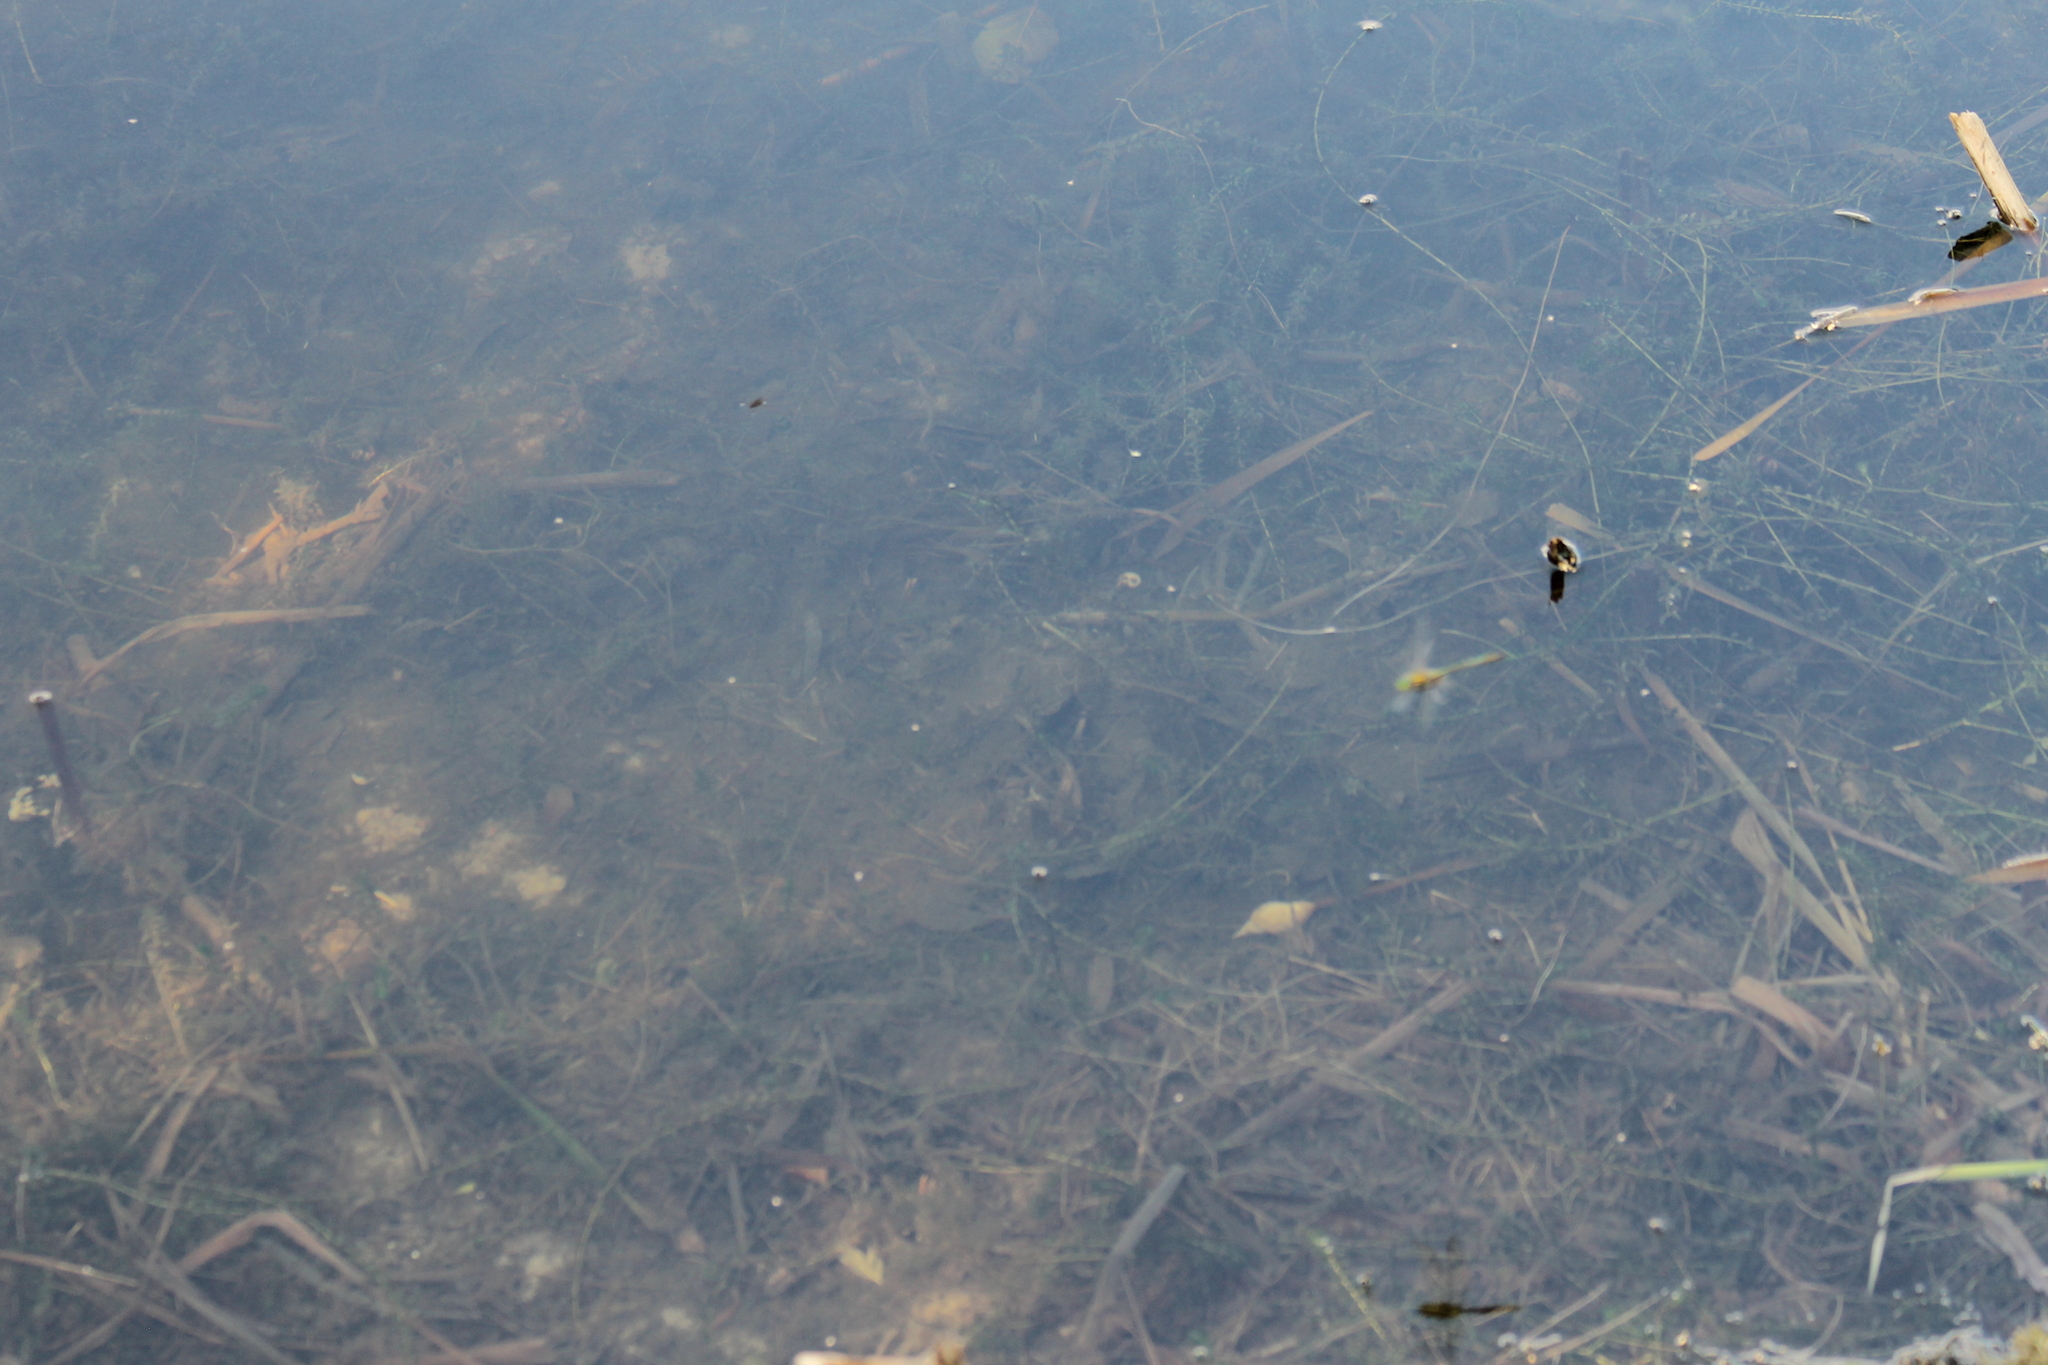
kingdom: Animalia
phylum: Arthropoda
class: Insecta
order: Odonata
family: Corduliidae
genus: Somatochlora
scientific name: Somatochlora metallica
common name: Brilliant emerald
